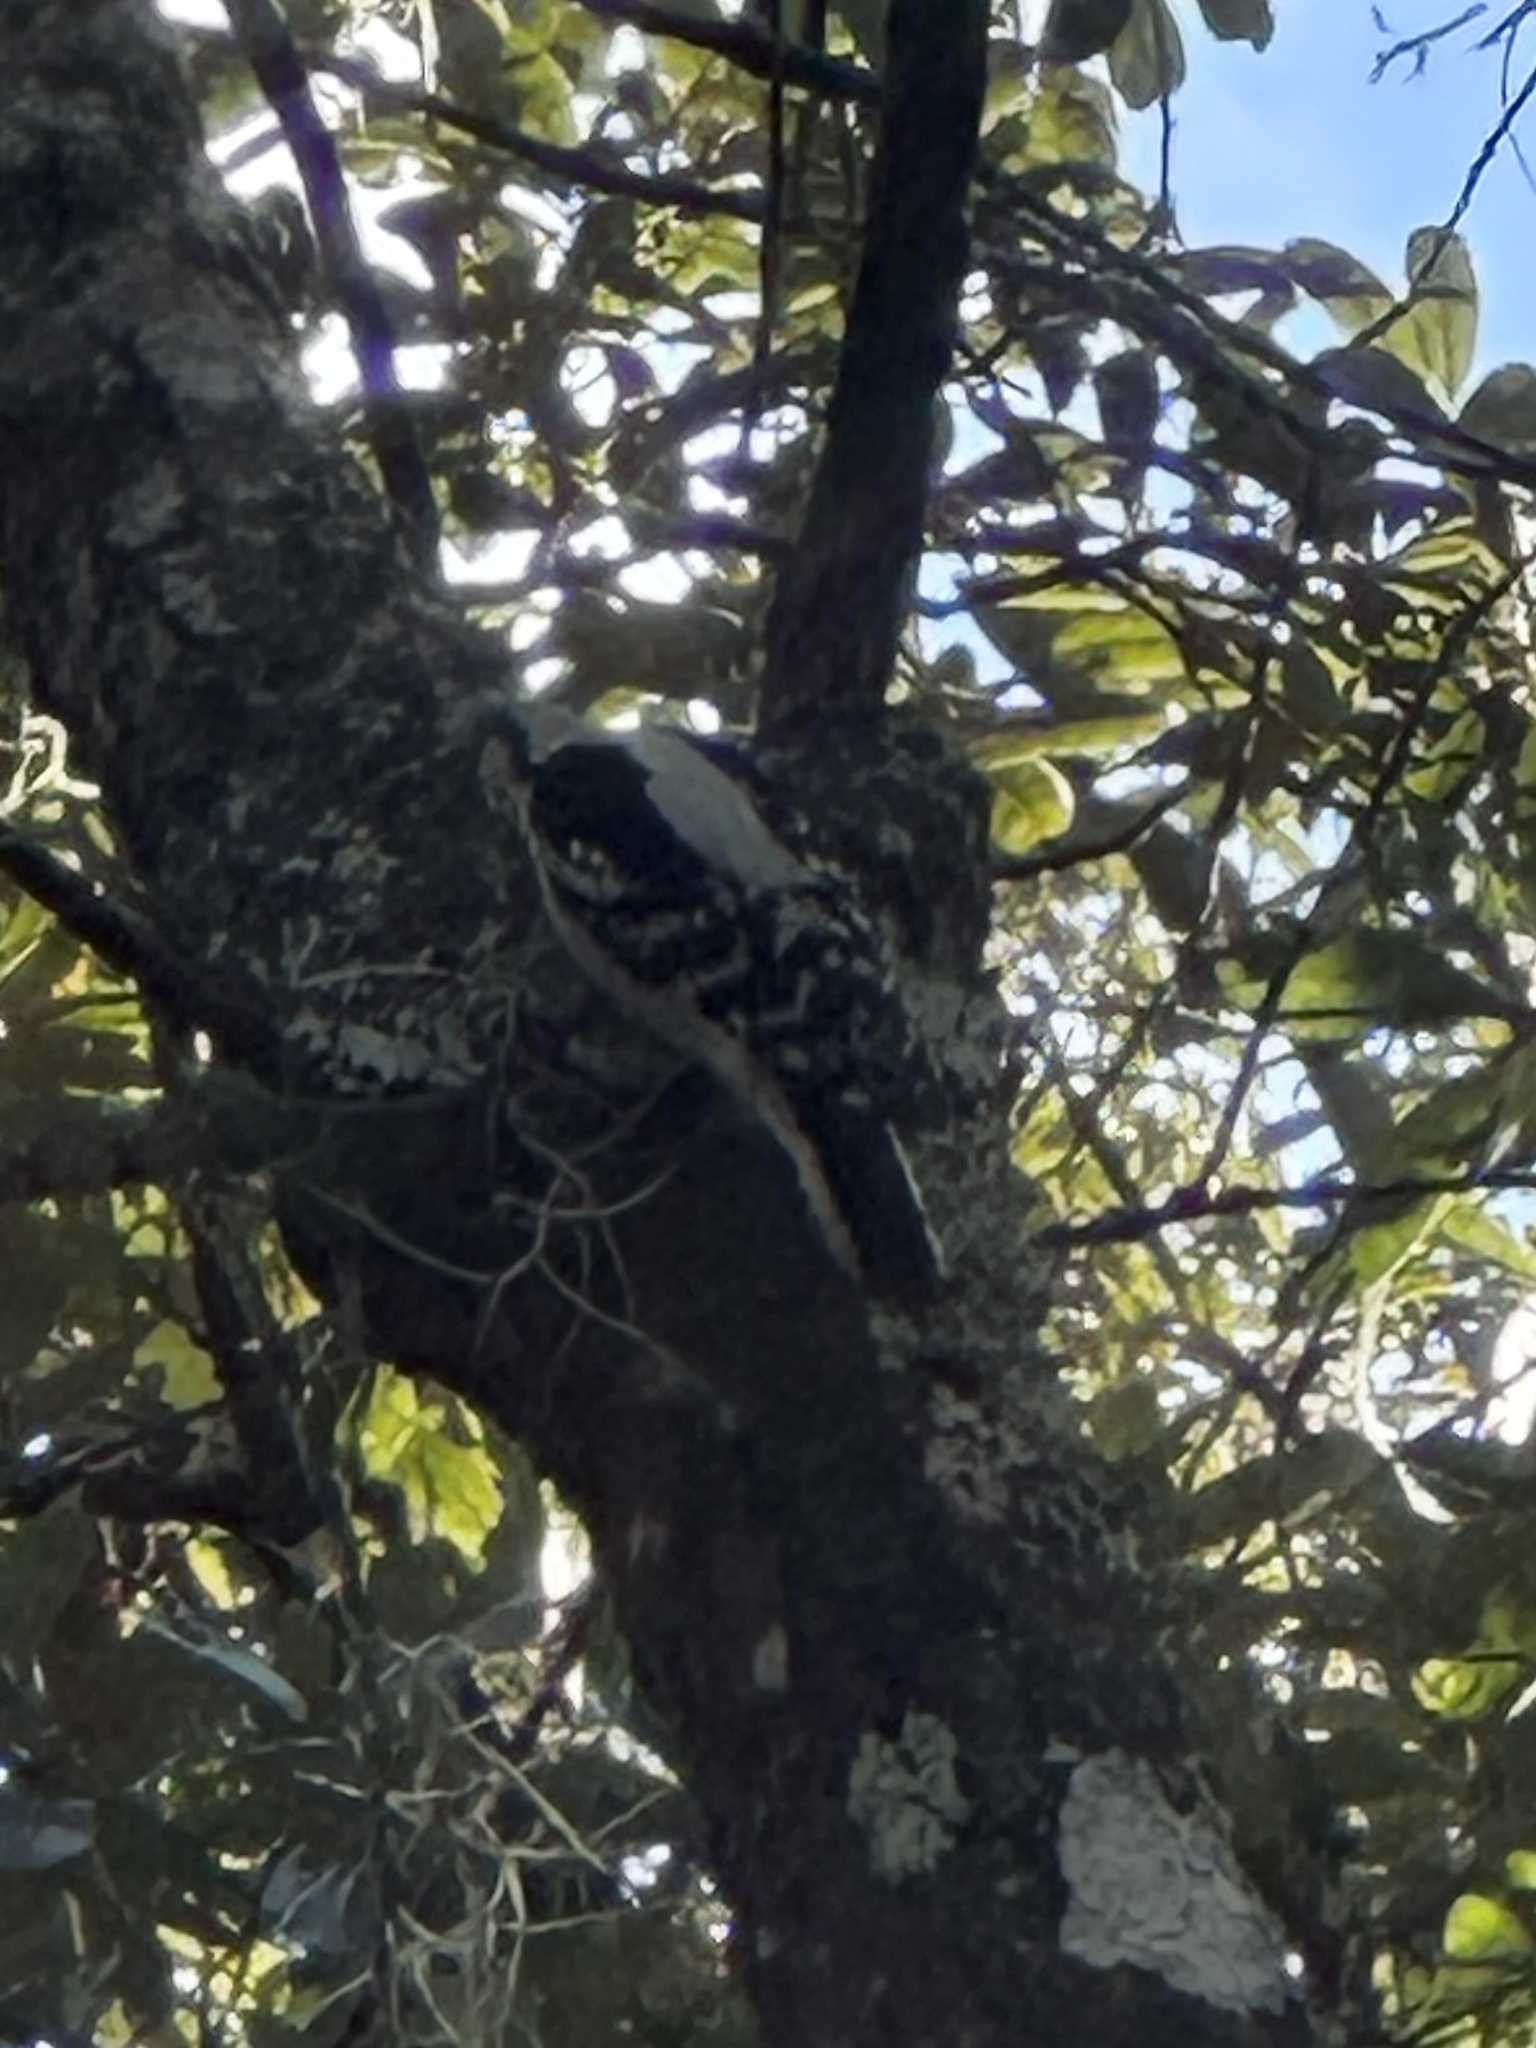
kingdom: Animalia
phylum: Chordata
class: Aves
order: Piciformes
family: Picidae
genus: Dryobates
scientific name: Dryobates pubescens
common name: Downy woodpecker
